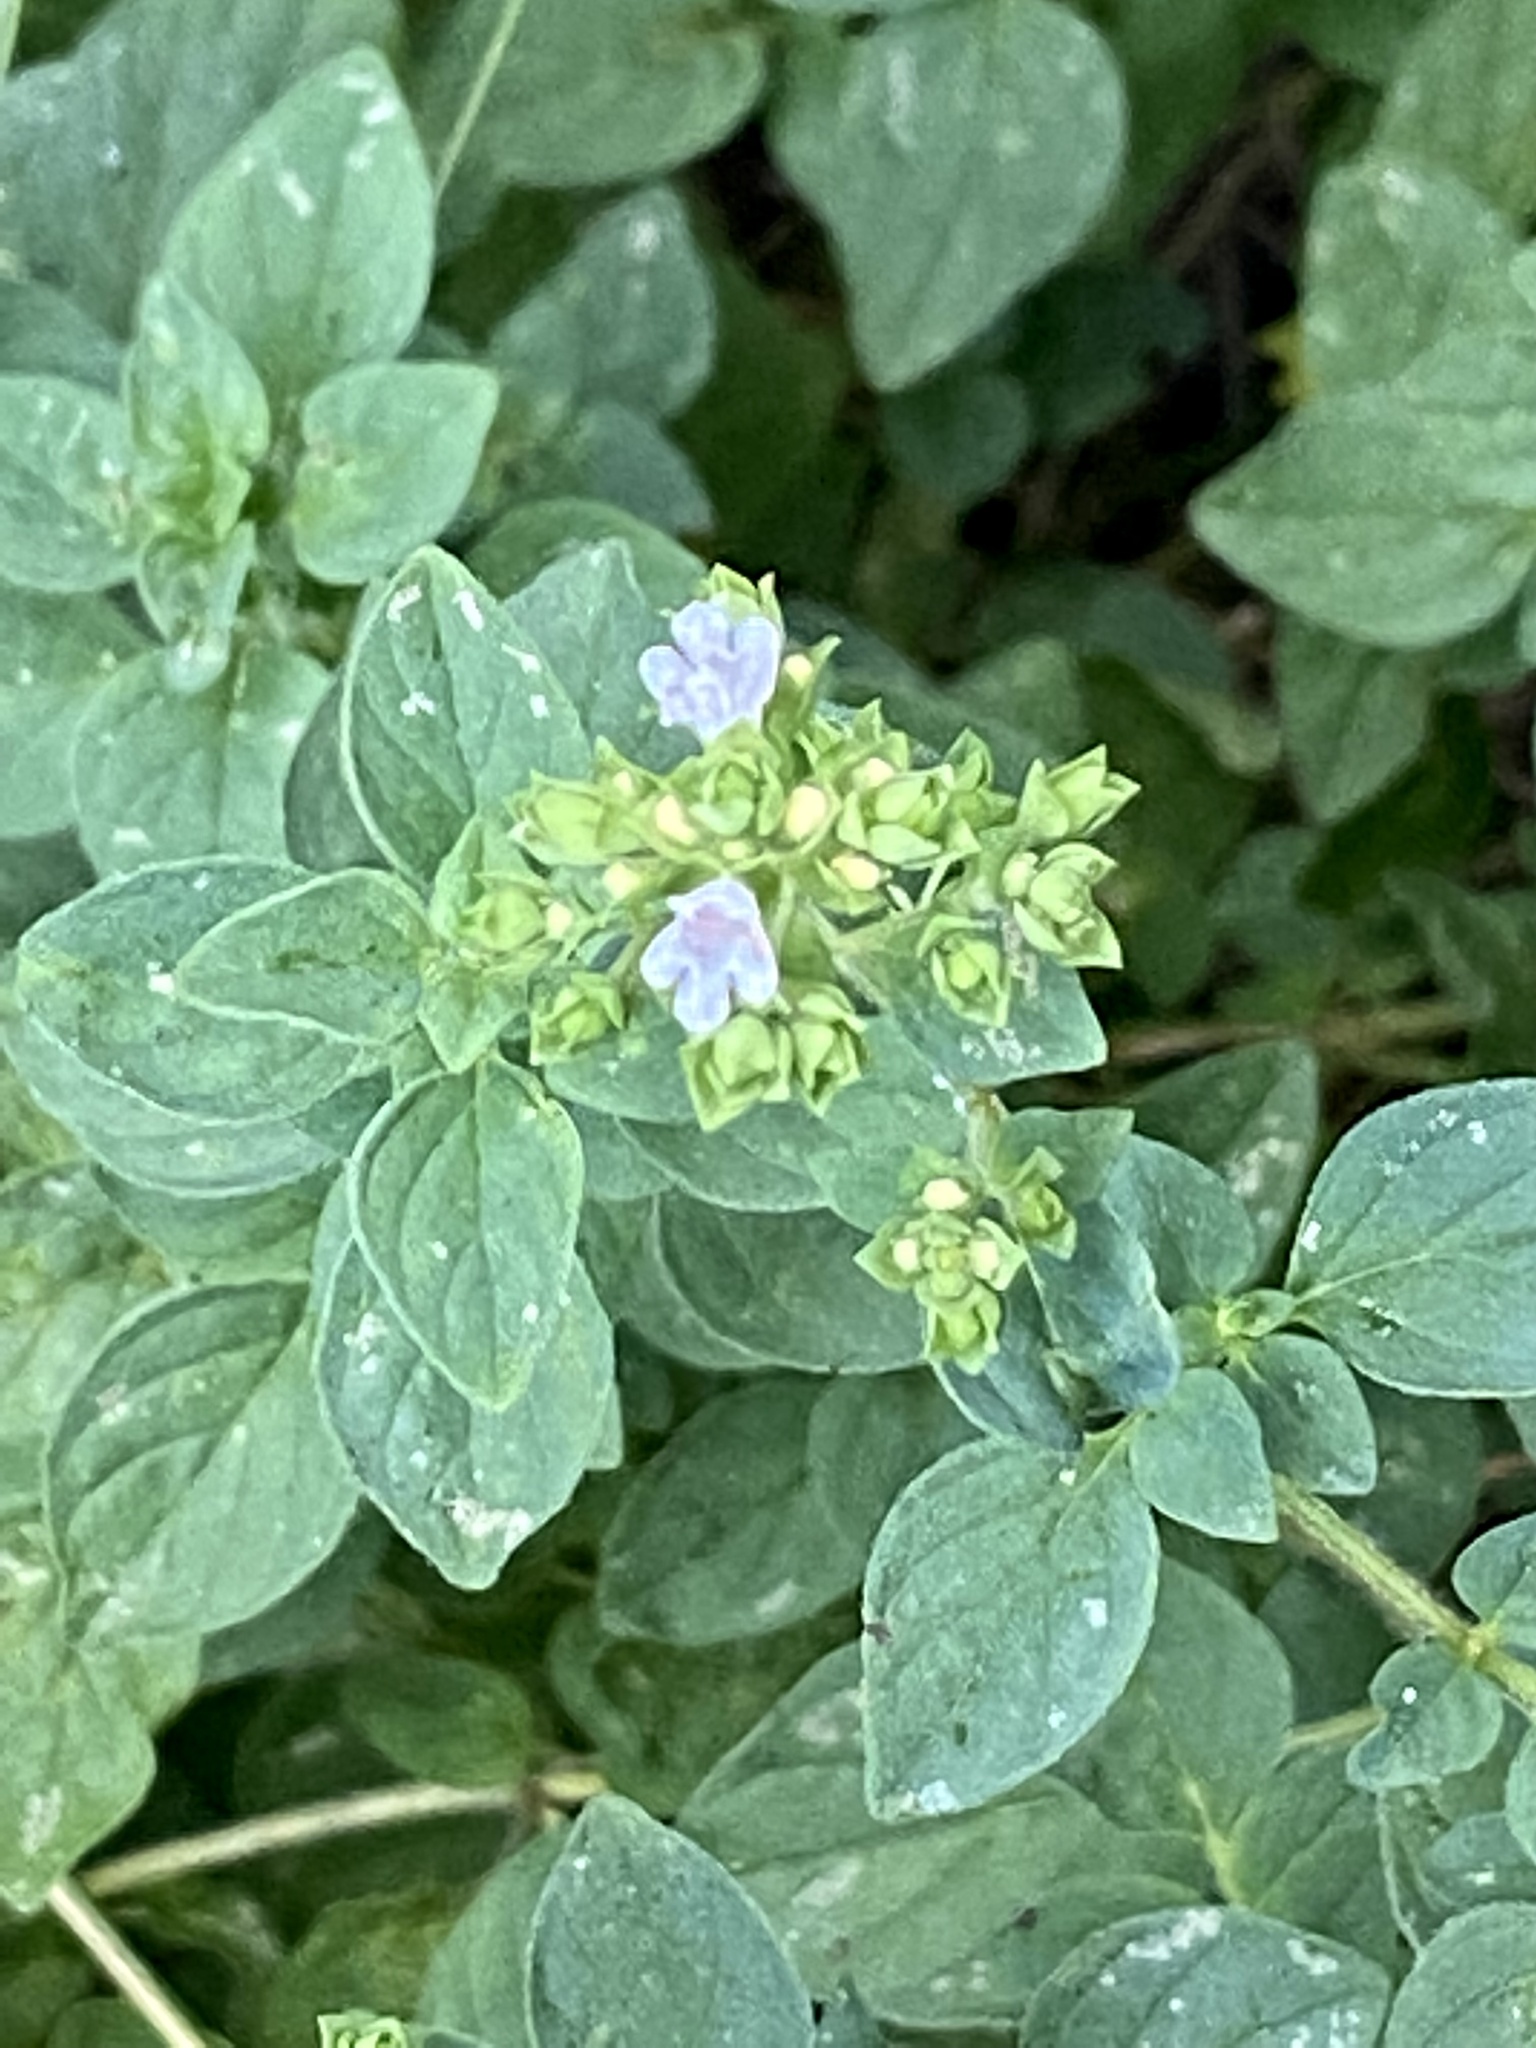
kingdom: Plantae
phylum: Tracheophyta
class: Magnoliopsida
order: Lamiales
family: Lamiaceae
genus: Origanum
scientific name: Origanum vulgare
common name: Wild marjoram
